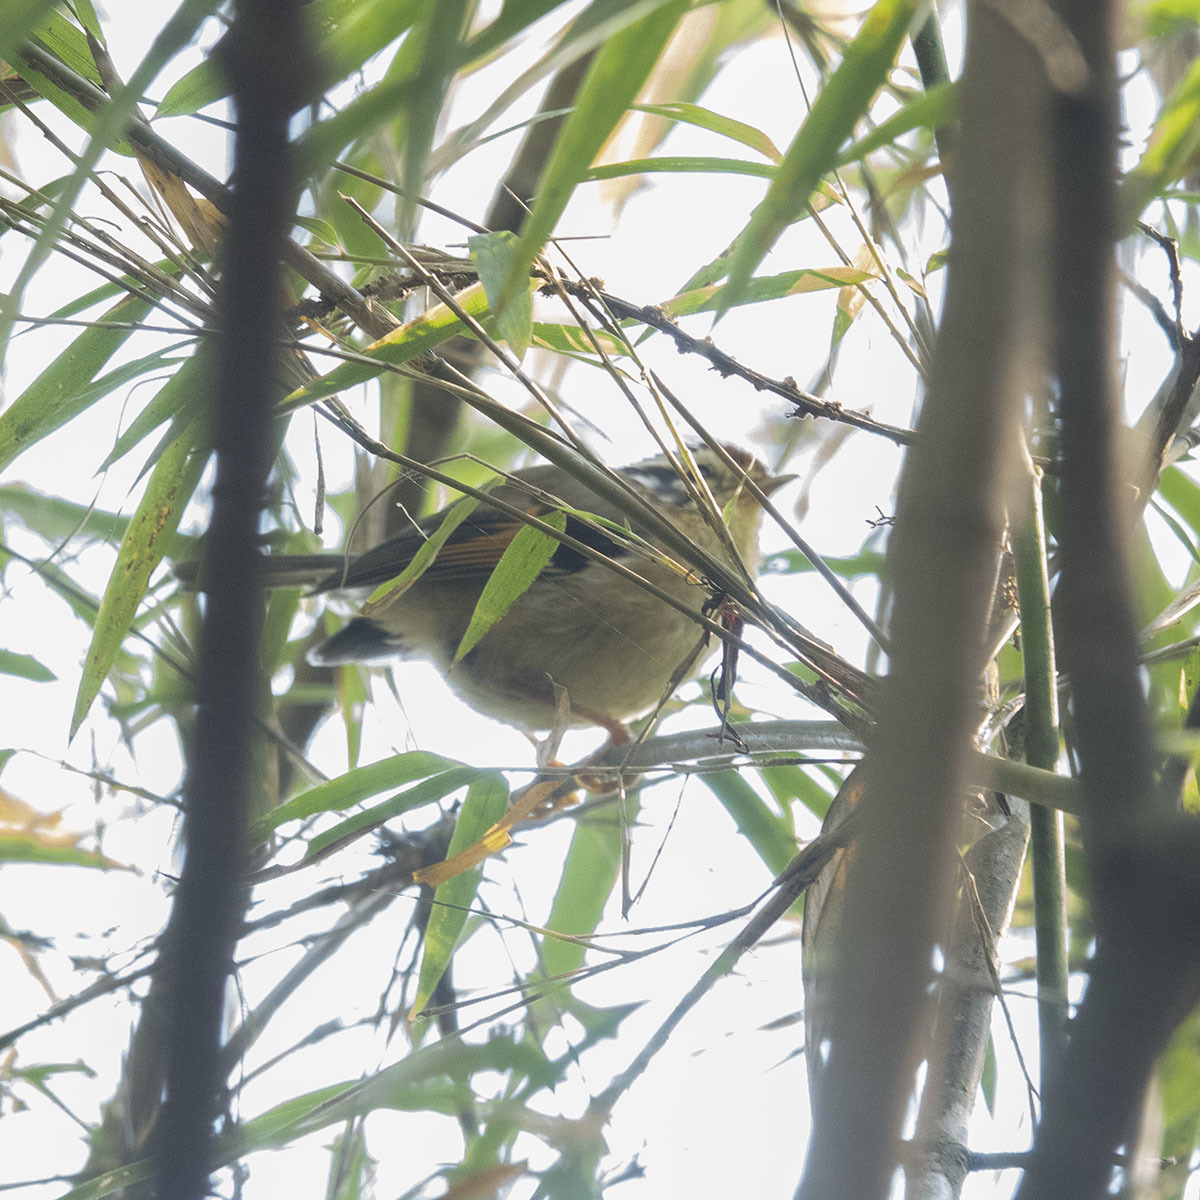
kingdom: Animalia
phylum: Chordata
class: Aves
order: Passeriformes
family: Pellorneidae
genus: Alcippe
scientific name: Alcippe castaneceps
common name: Rufous-winged fulvetta
